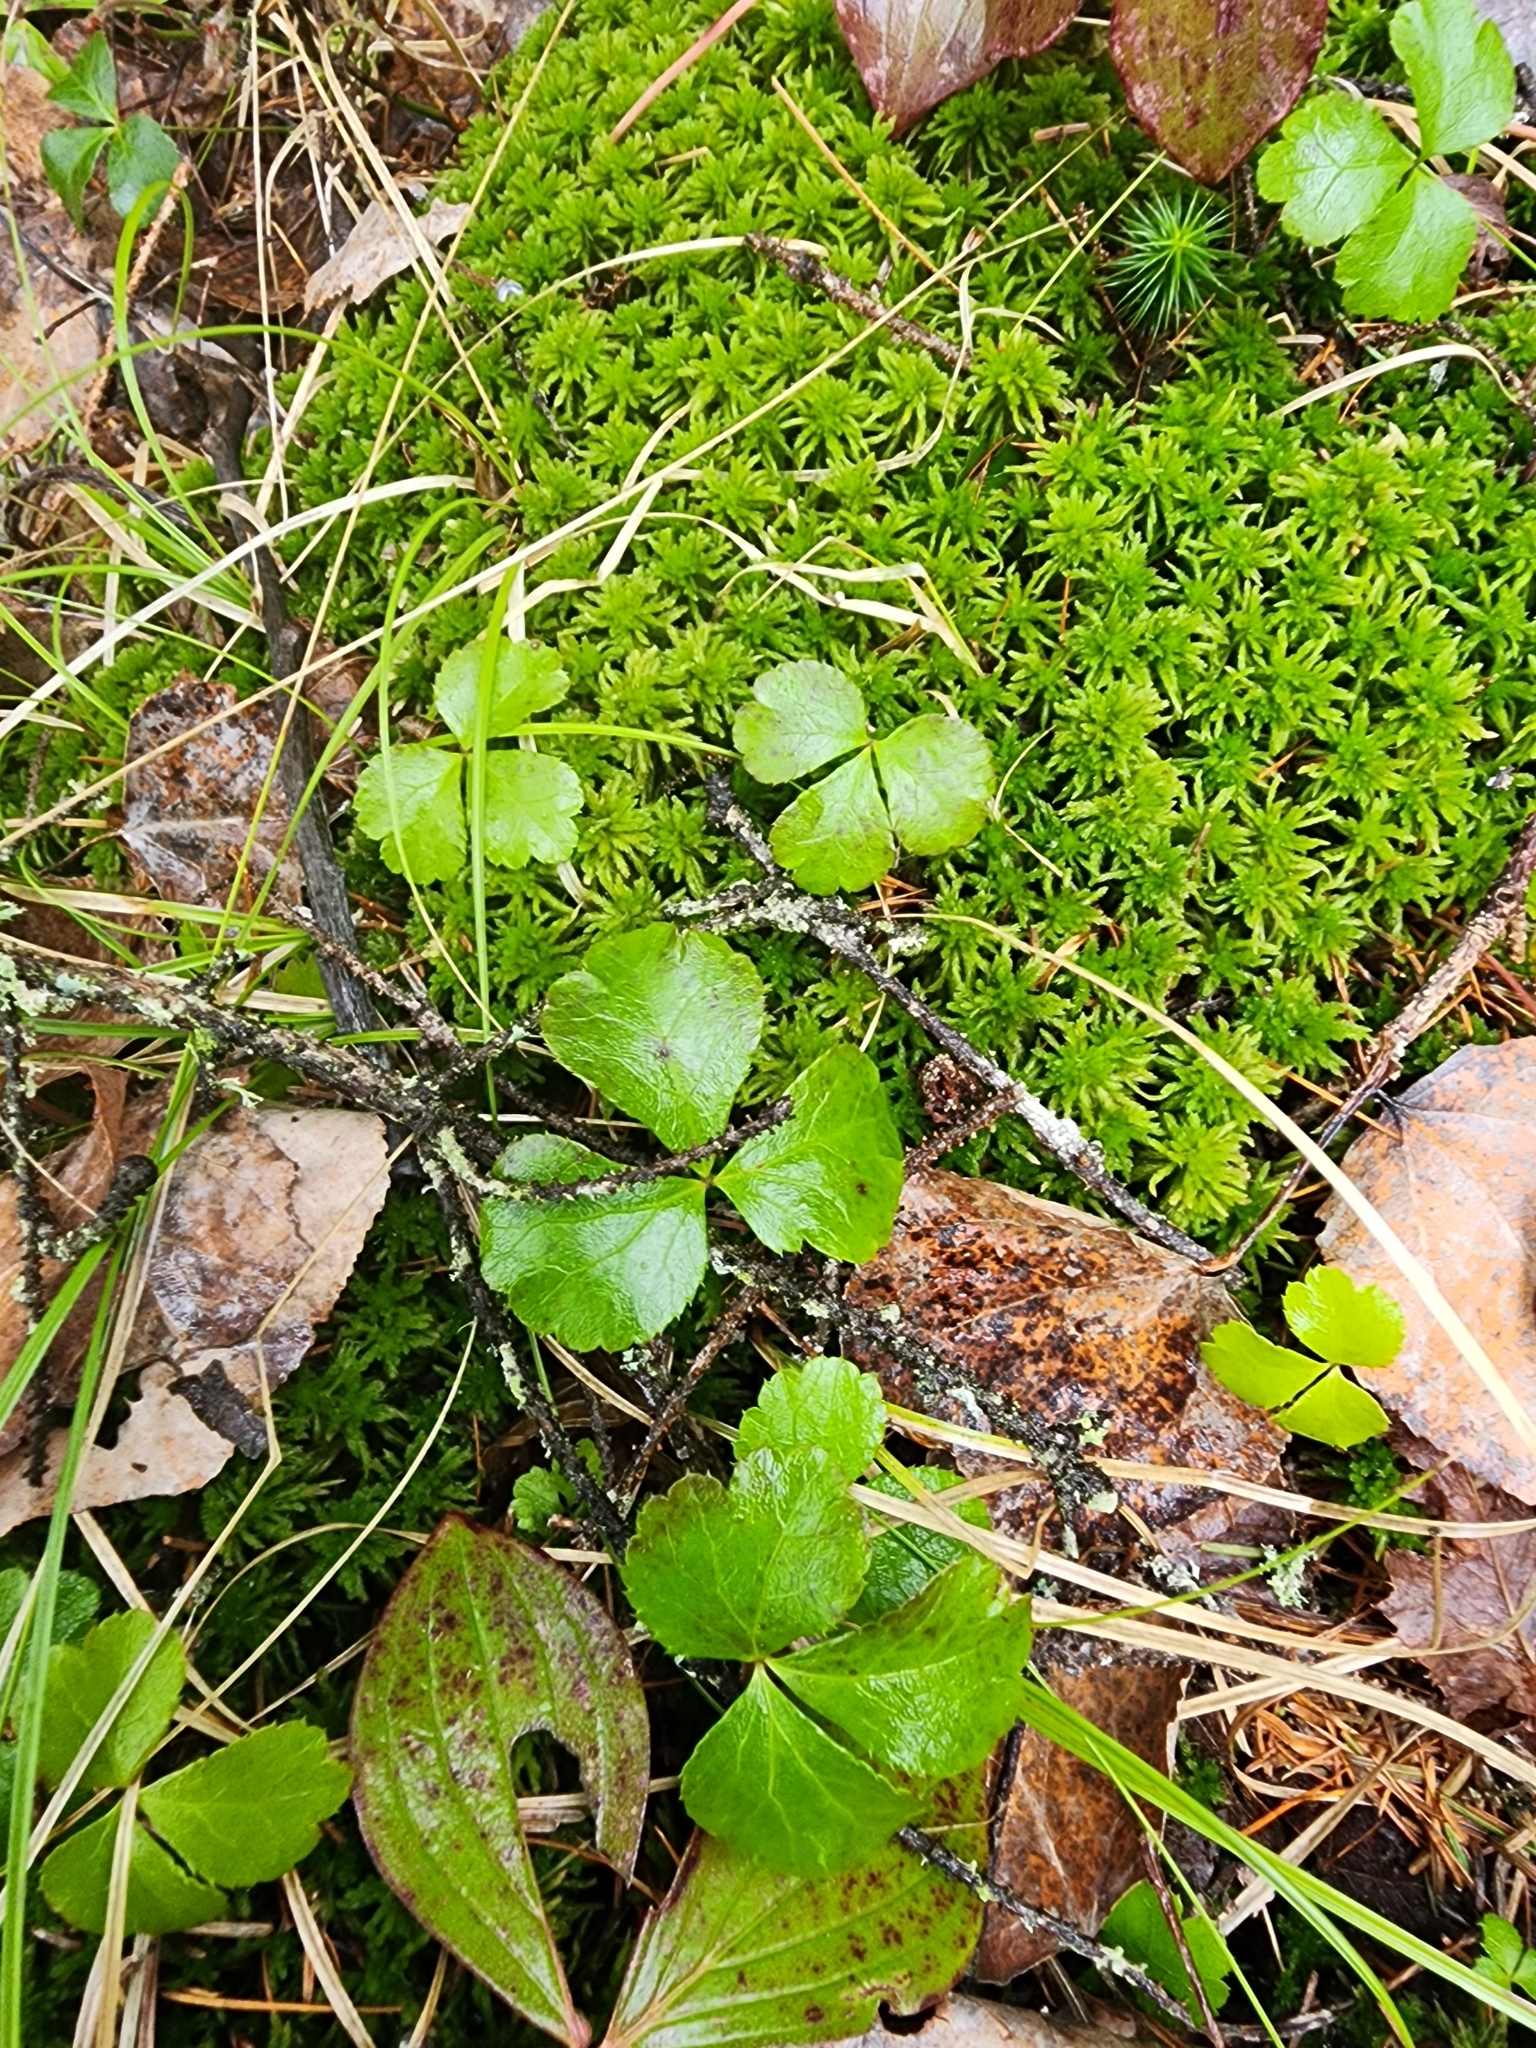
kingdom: Plantae
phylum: Tracheophyta
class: Magnoliopsida
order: Ranunculales
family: Ranunculaceae
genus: Coptis
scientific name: Coptis trifolia
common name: Canker-root
